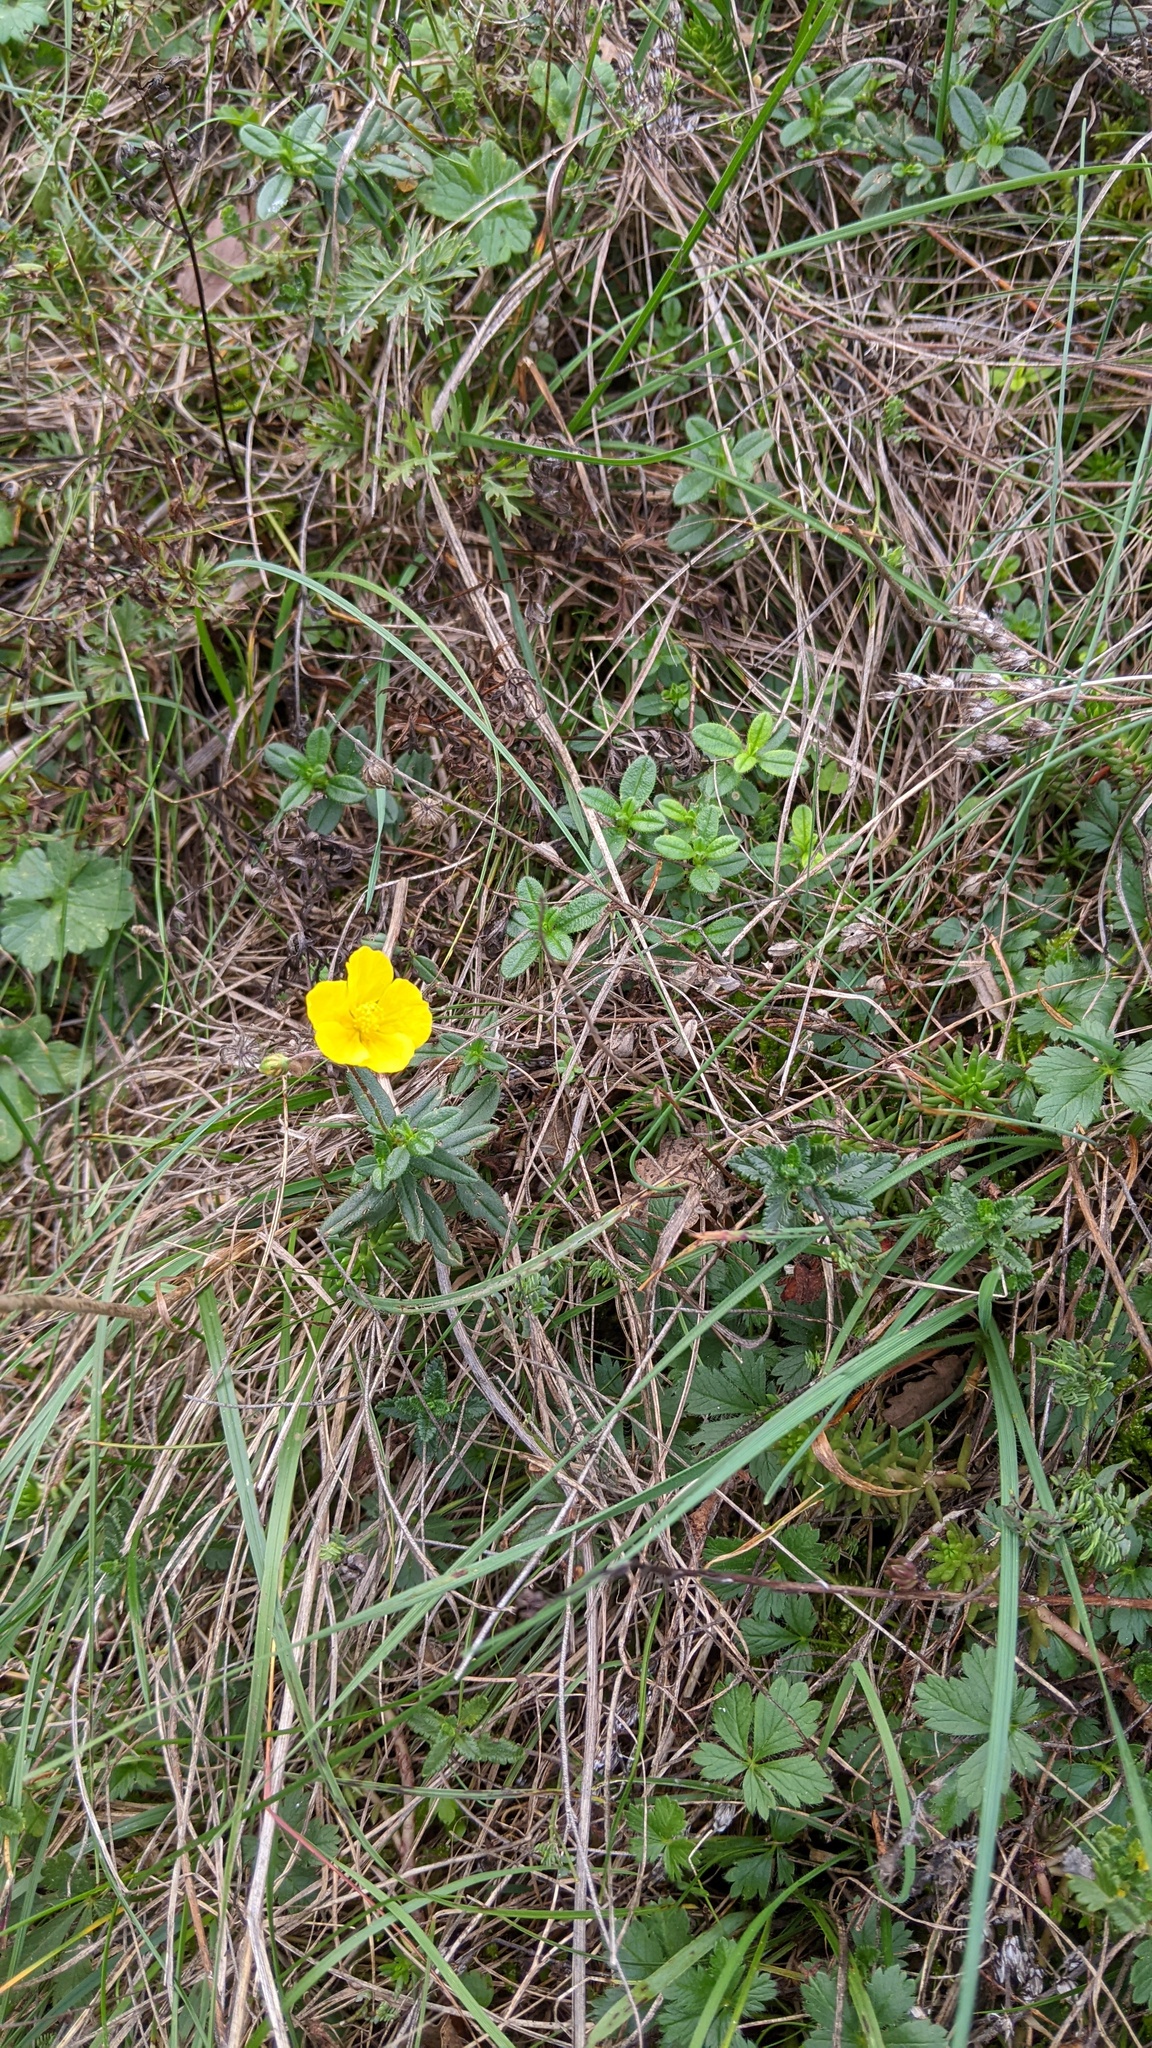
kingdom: Plantae
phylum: Tracheophyta
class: Magnoliopsida
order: Malvales
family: Cistaceae
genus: Helianthemum
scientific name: Helianthemum nummularium
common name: Common rock-rose
